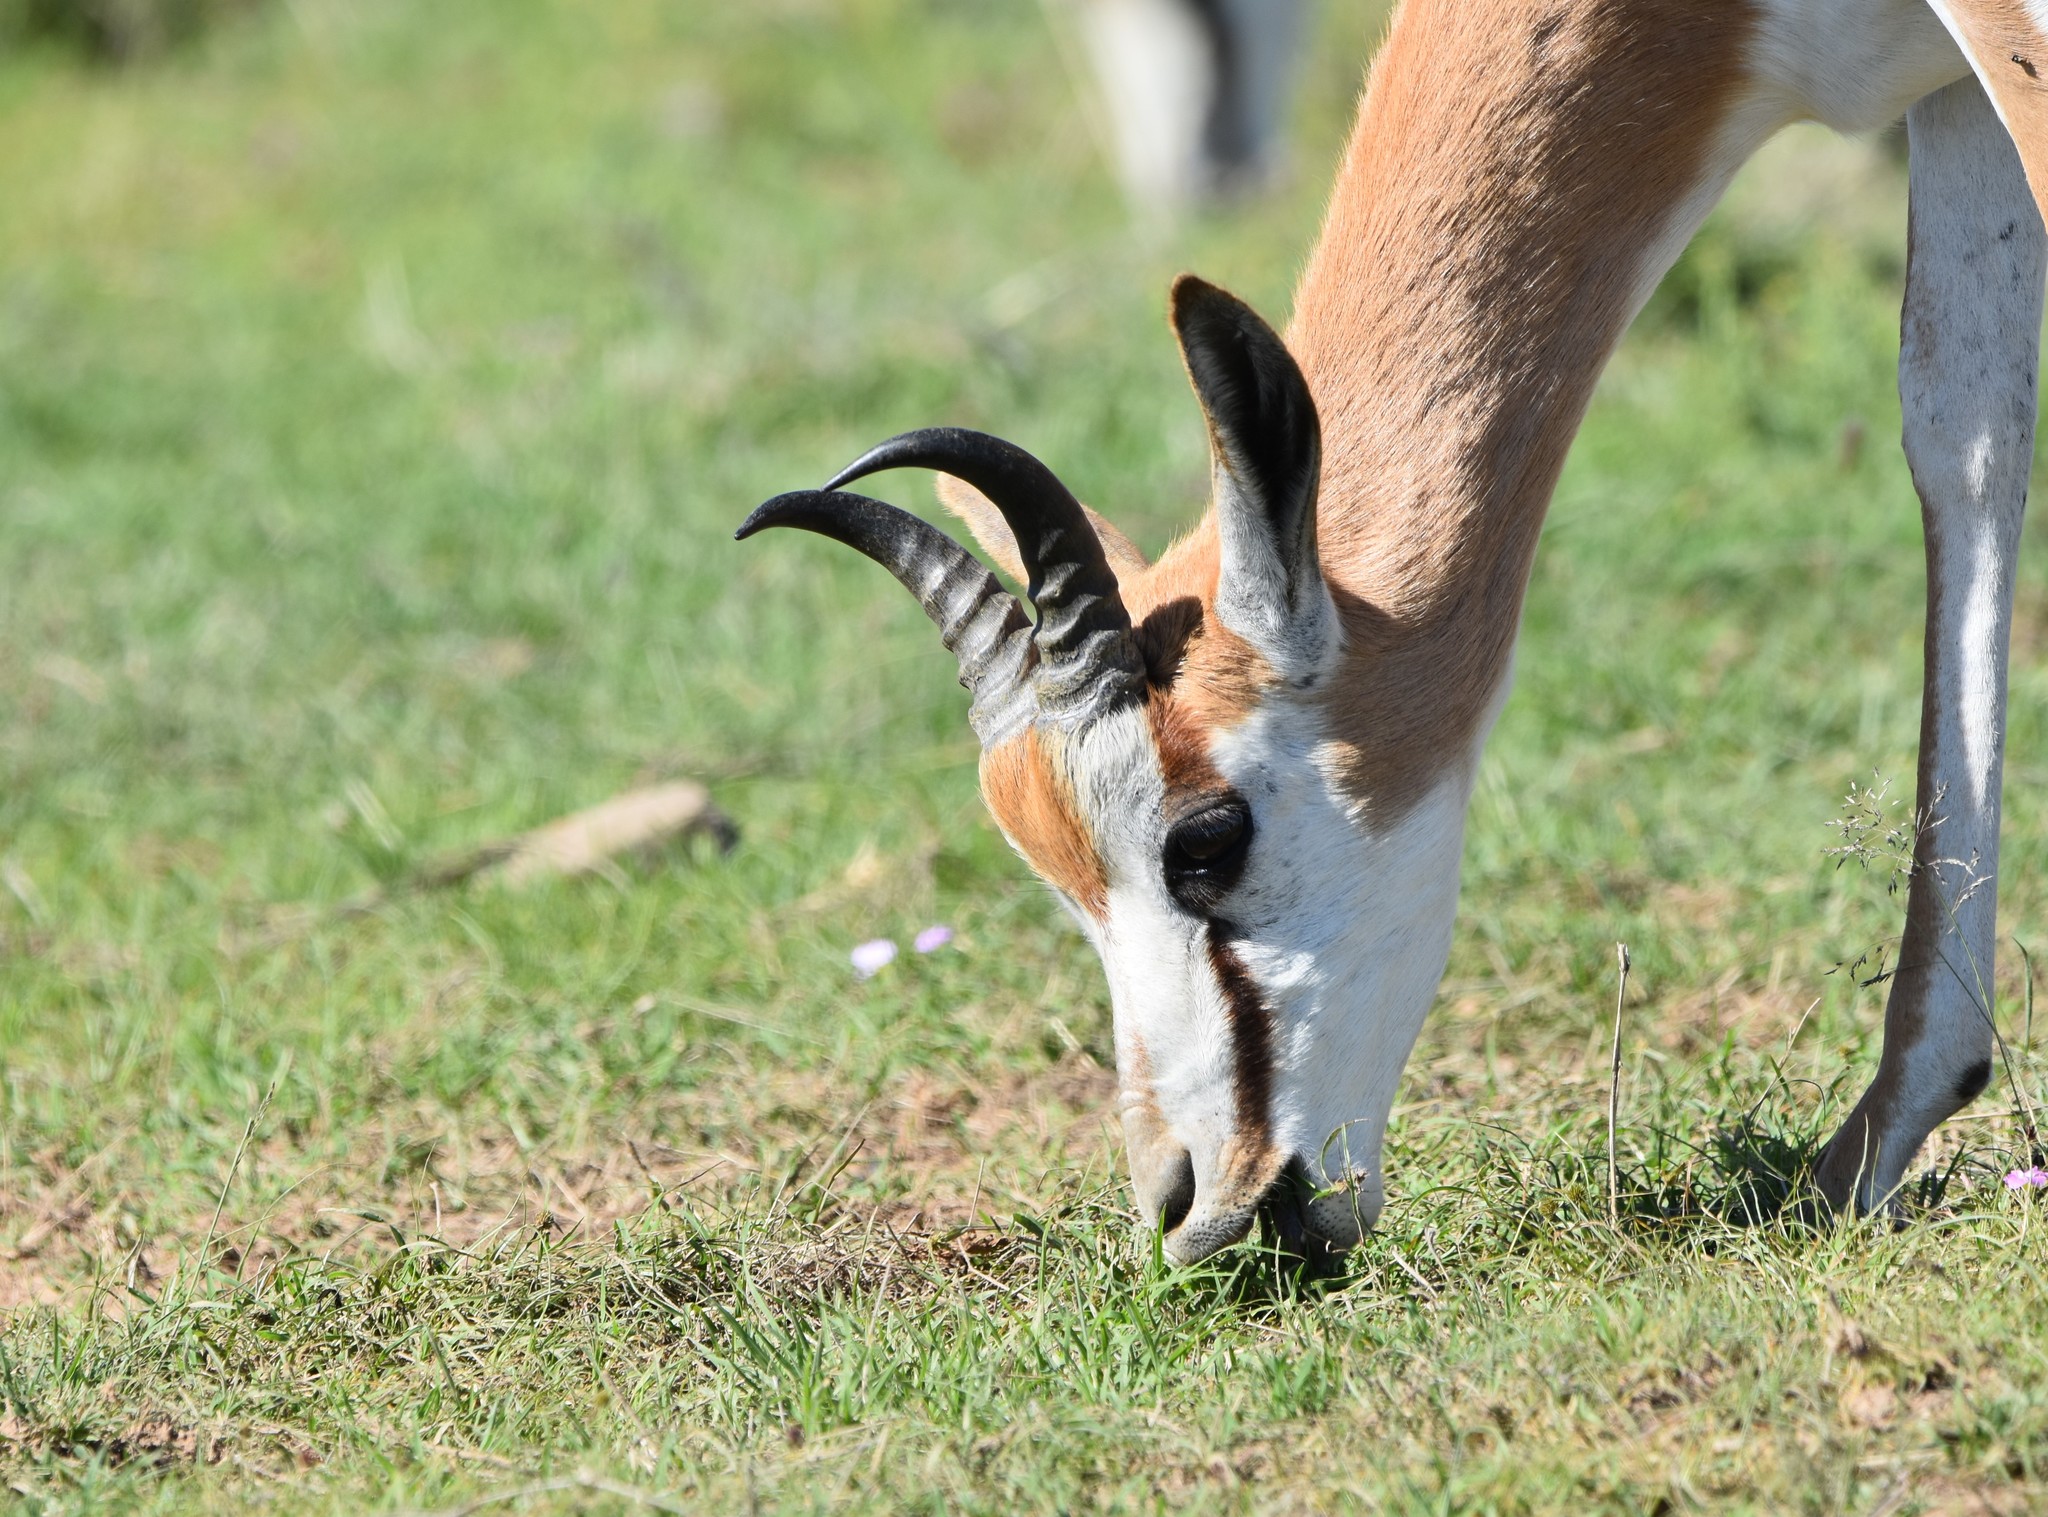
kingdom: Animalia
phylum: Chordata
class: Mammalia
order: Artiodactyla
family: Bovidae
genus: Antidorcas
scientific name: Antidorcas marsupialis
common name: Springbok
